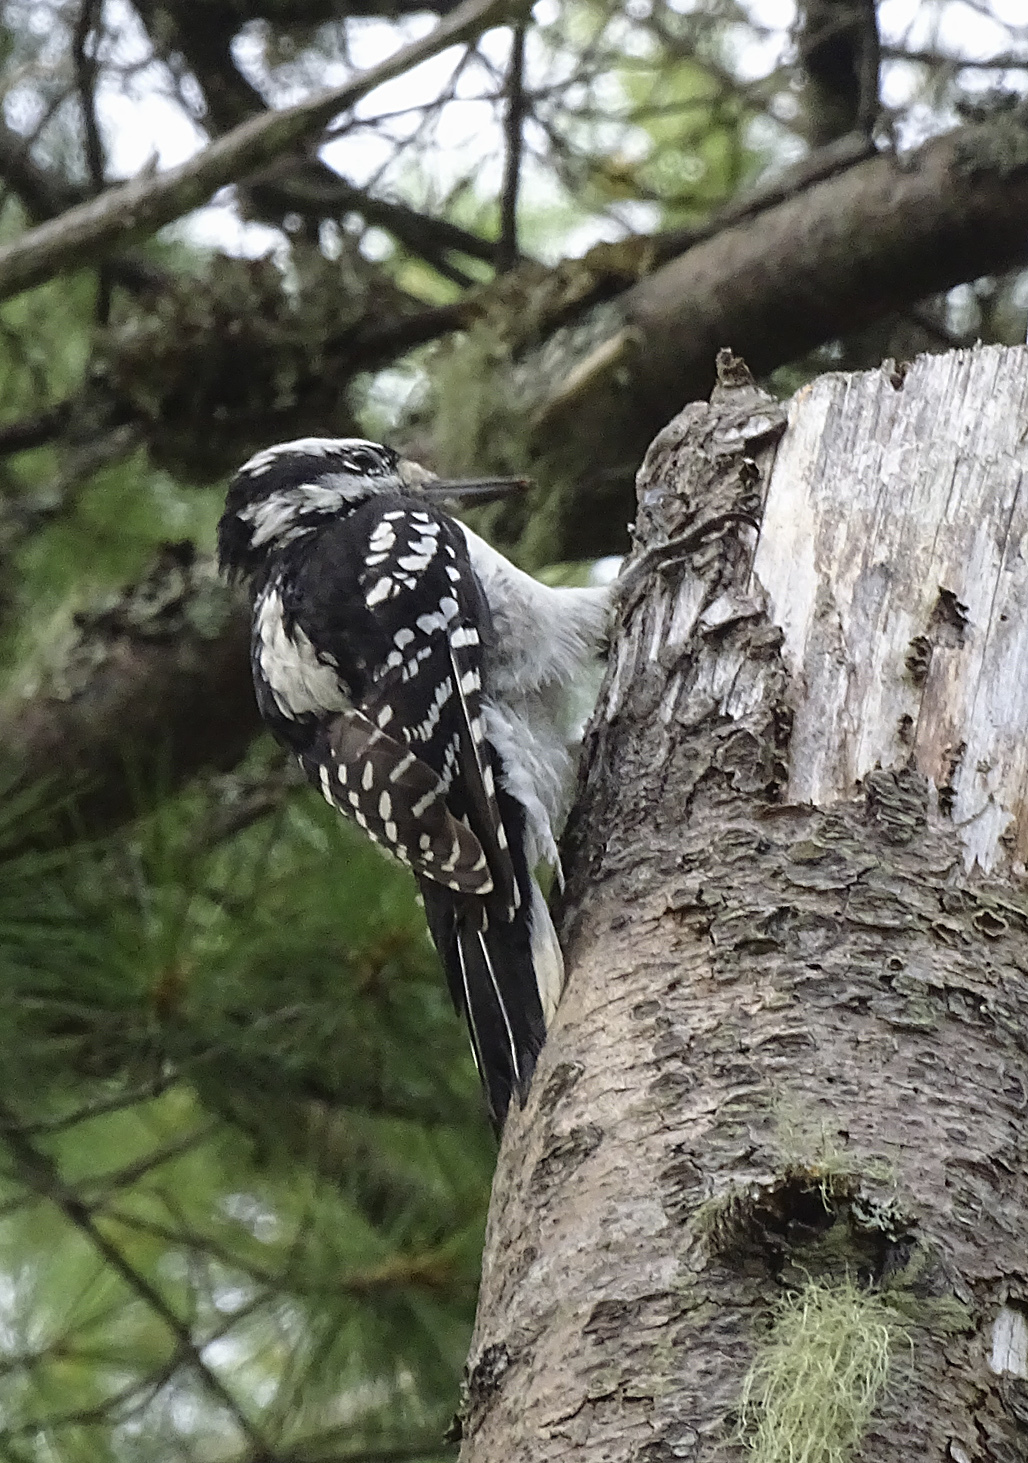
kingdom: Animalia
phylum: Chordata
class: Aves
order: Piciformes
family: Picidae
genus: Leuconotopicus
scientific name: Leuconotopicus villosus
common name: Hairy woodpecker
